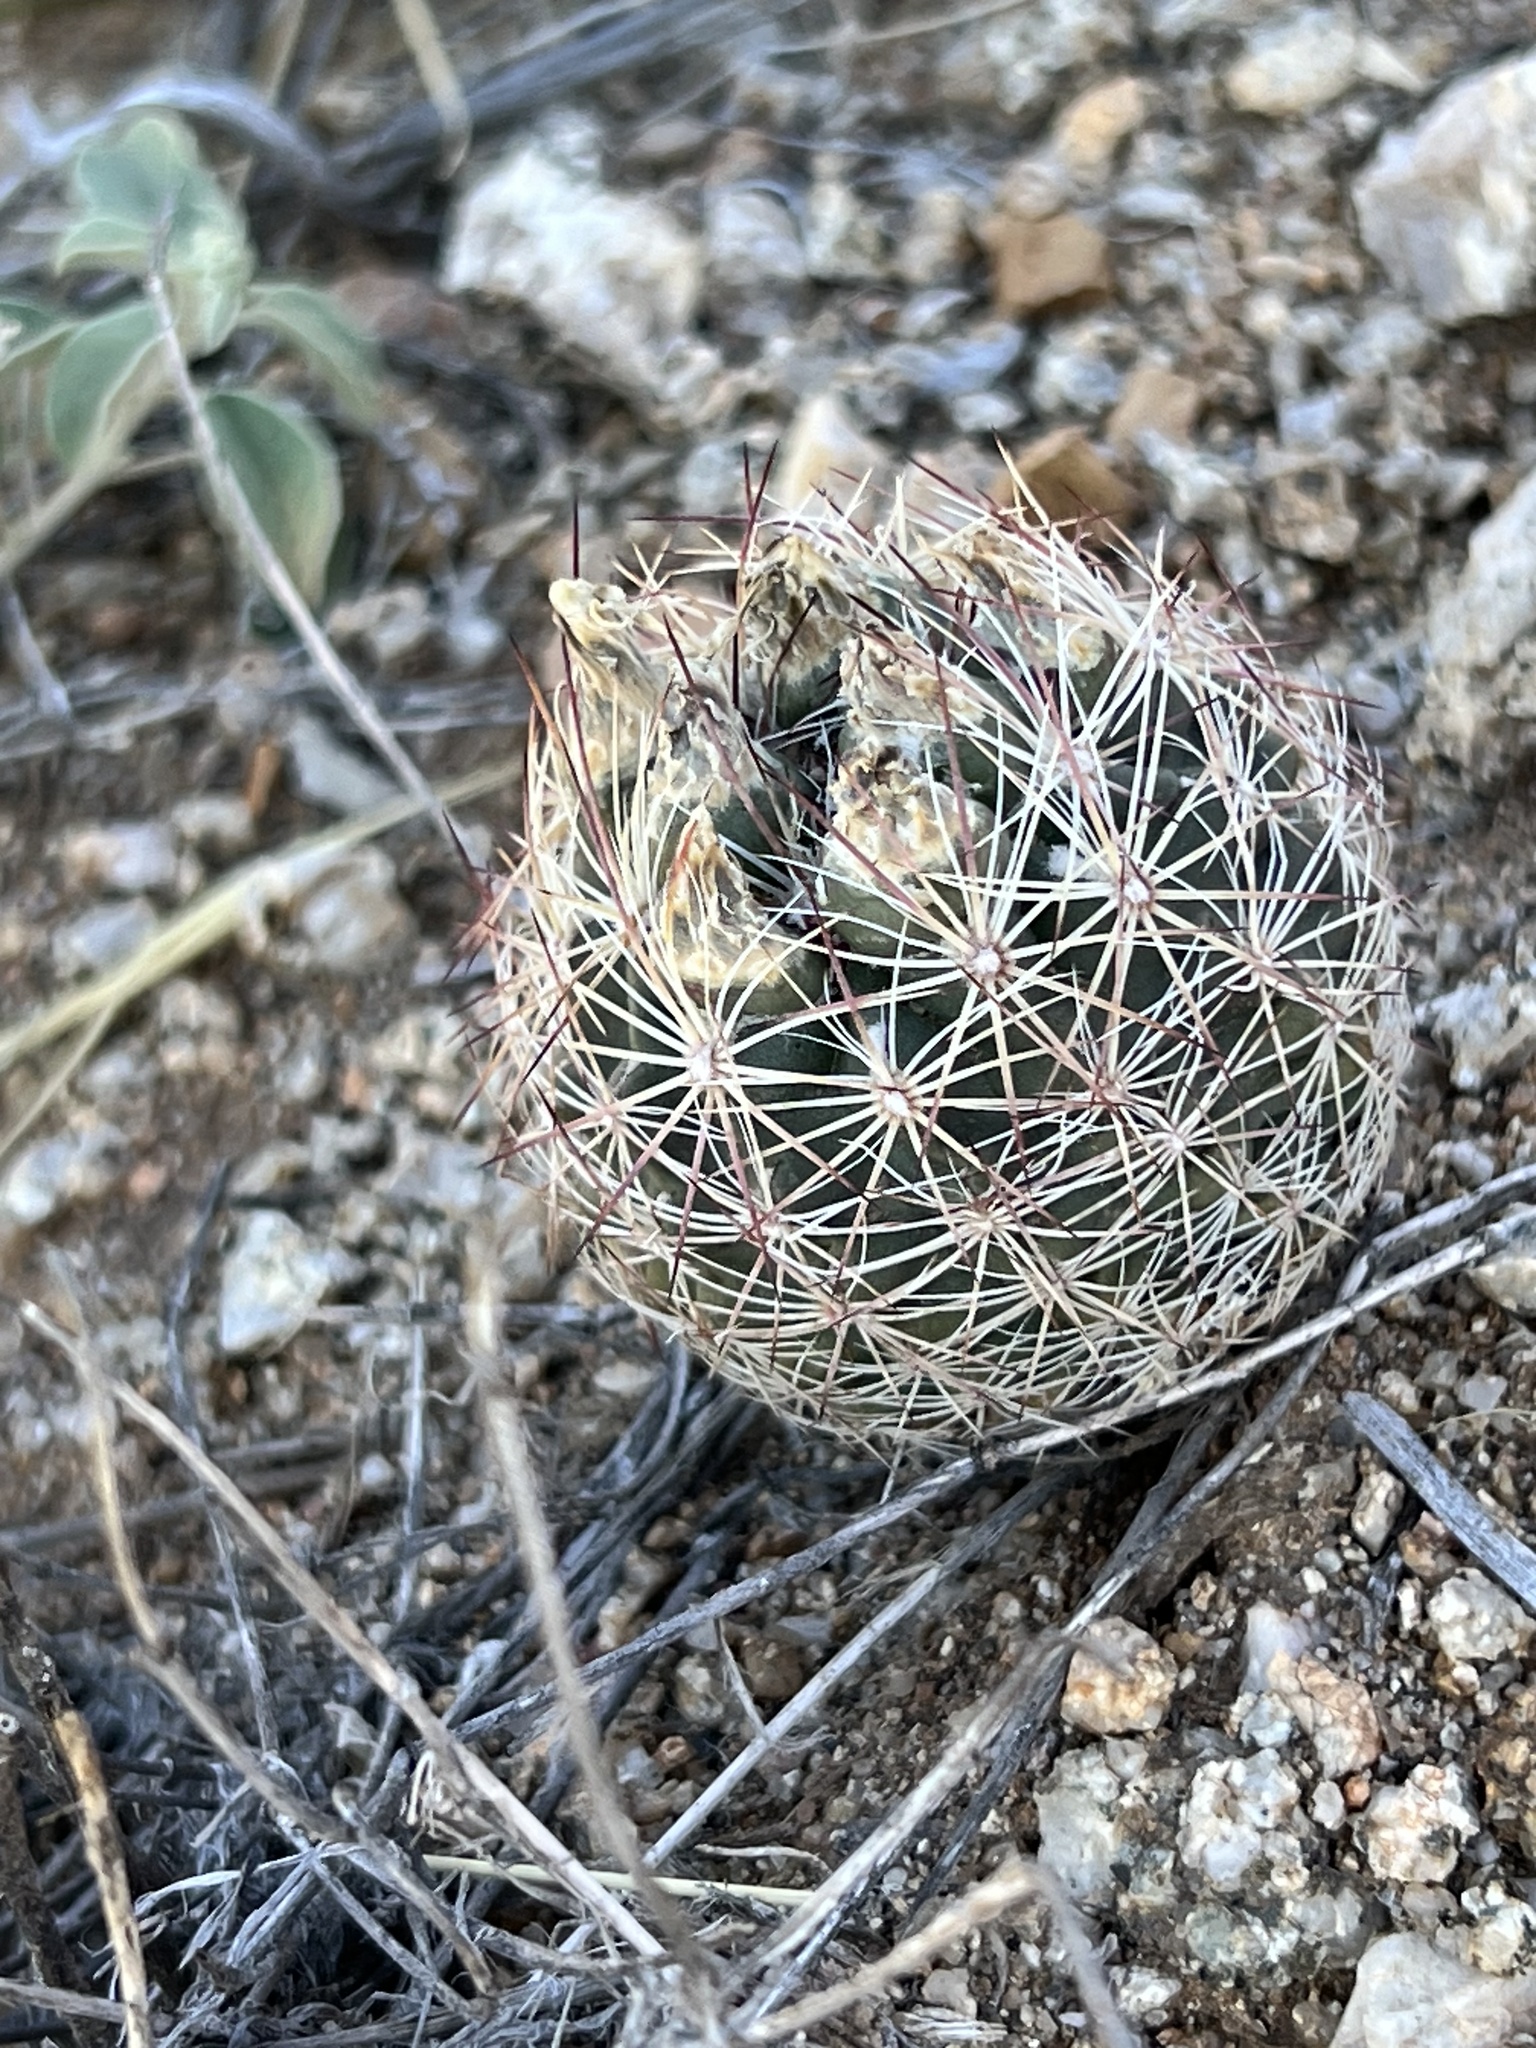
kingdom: Plantae
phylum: Tracheophyta
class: Magnoliopsida
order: Caryophyllales
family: Cactaceae
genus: Sclerocactus
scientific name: Sclerocactus intertextus
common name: White fish-hook cactus
